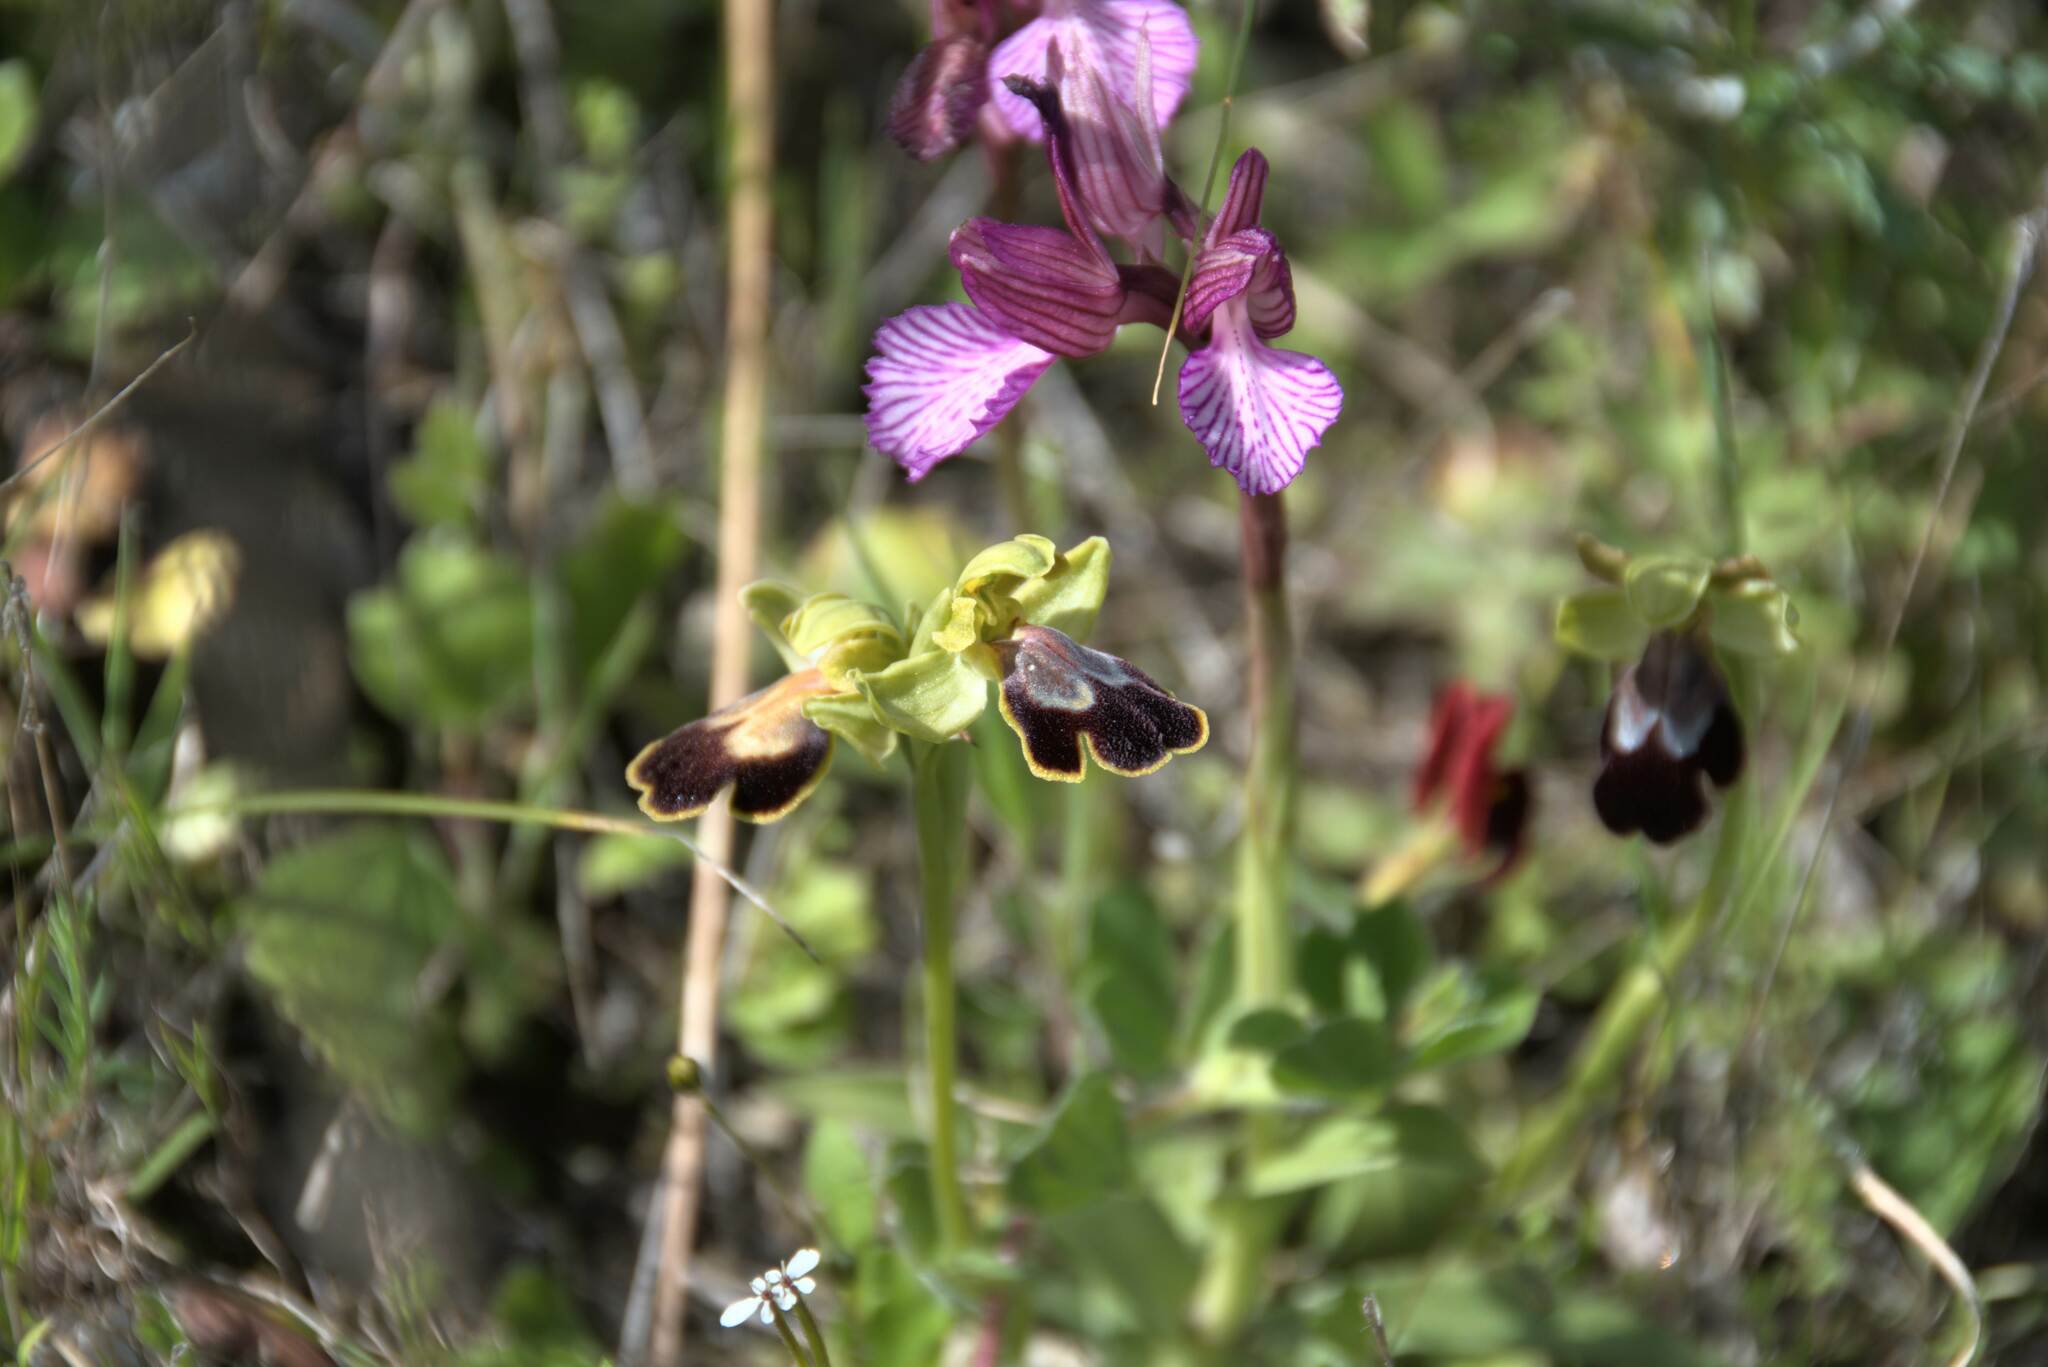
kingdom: Plantae
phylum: Tracheophyta
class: Liliopsida
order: Asparagales
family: Orchidaceae
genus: Ophrys
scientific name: Ophrys fusca
